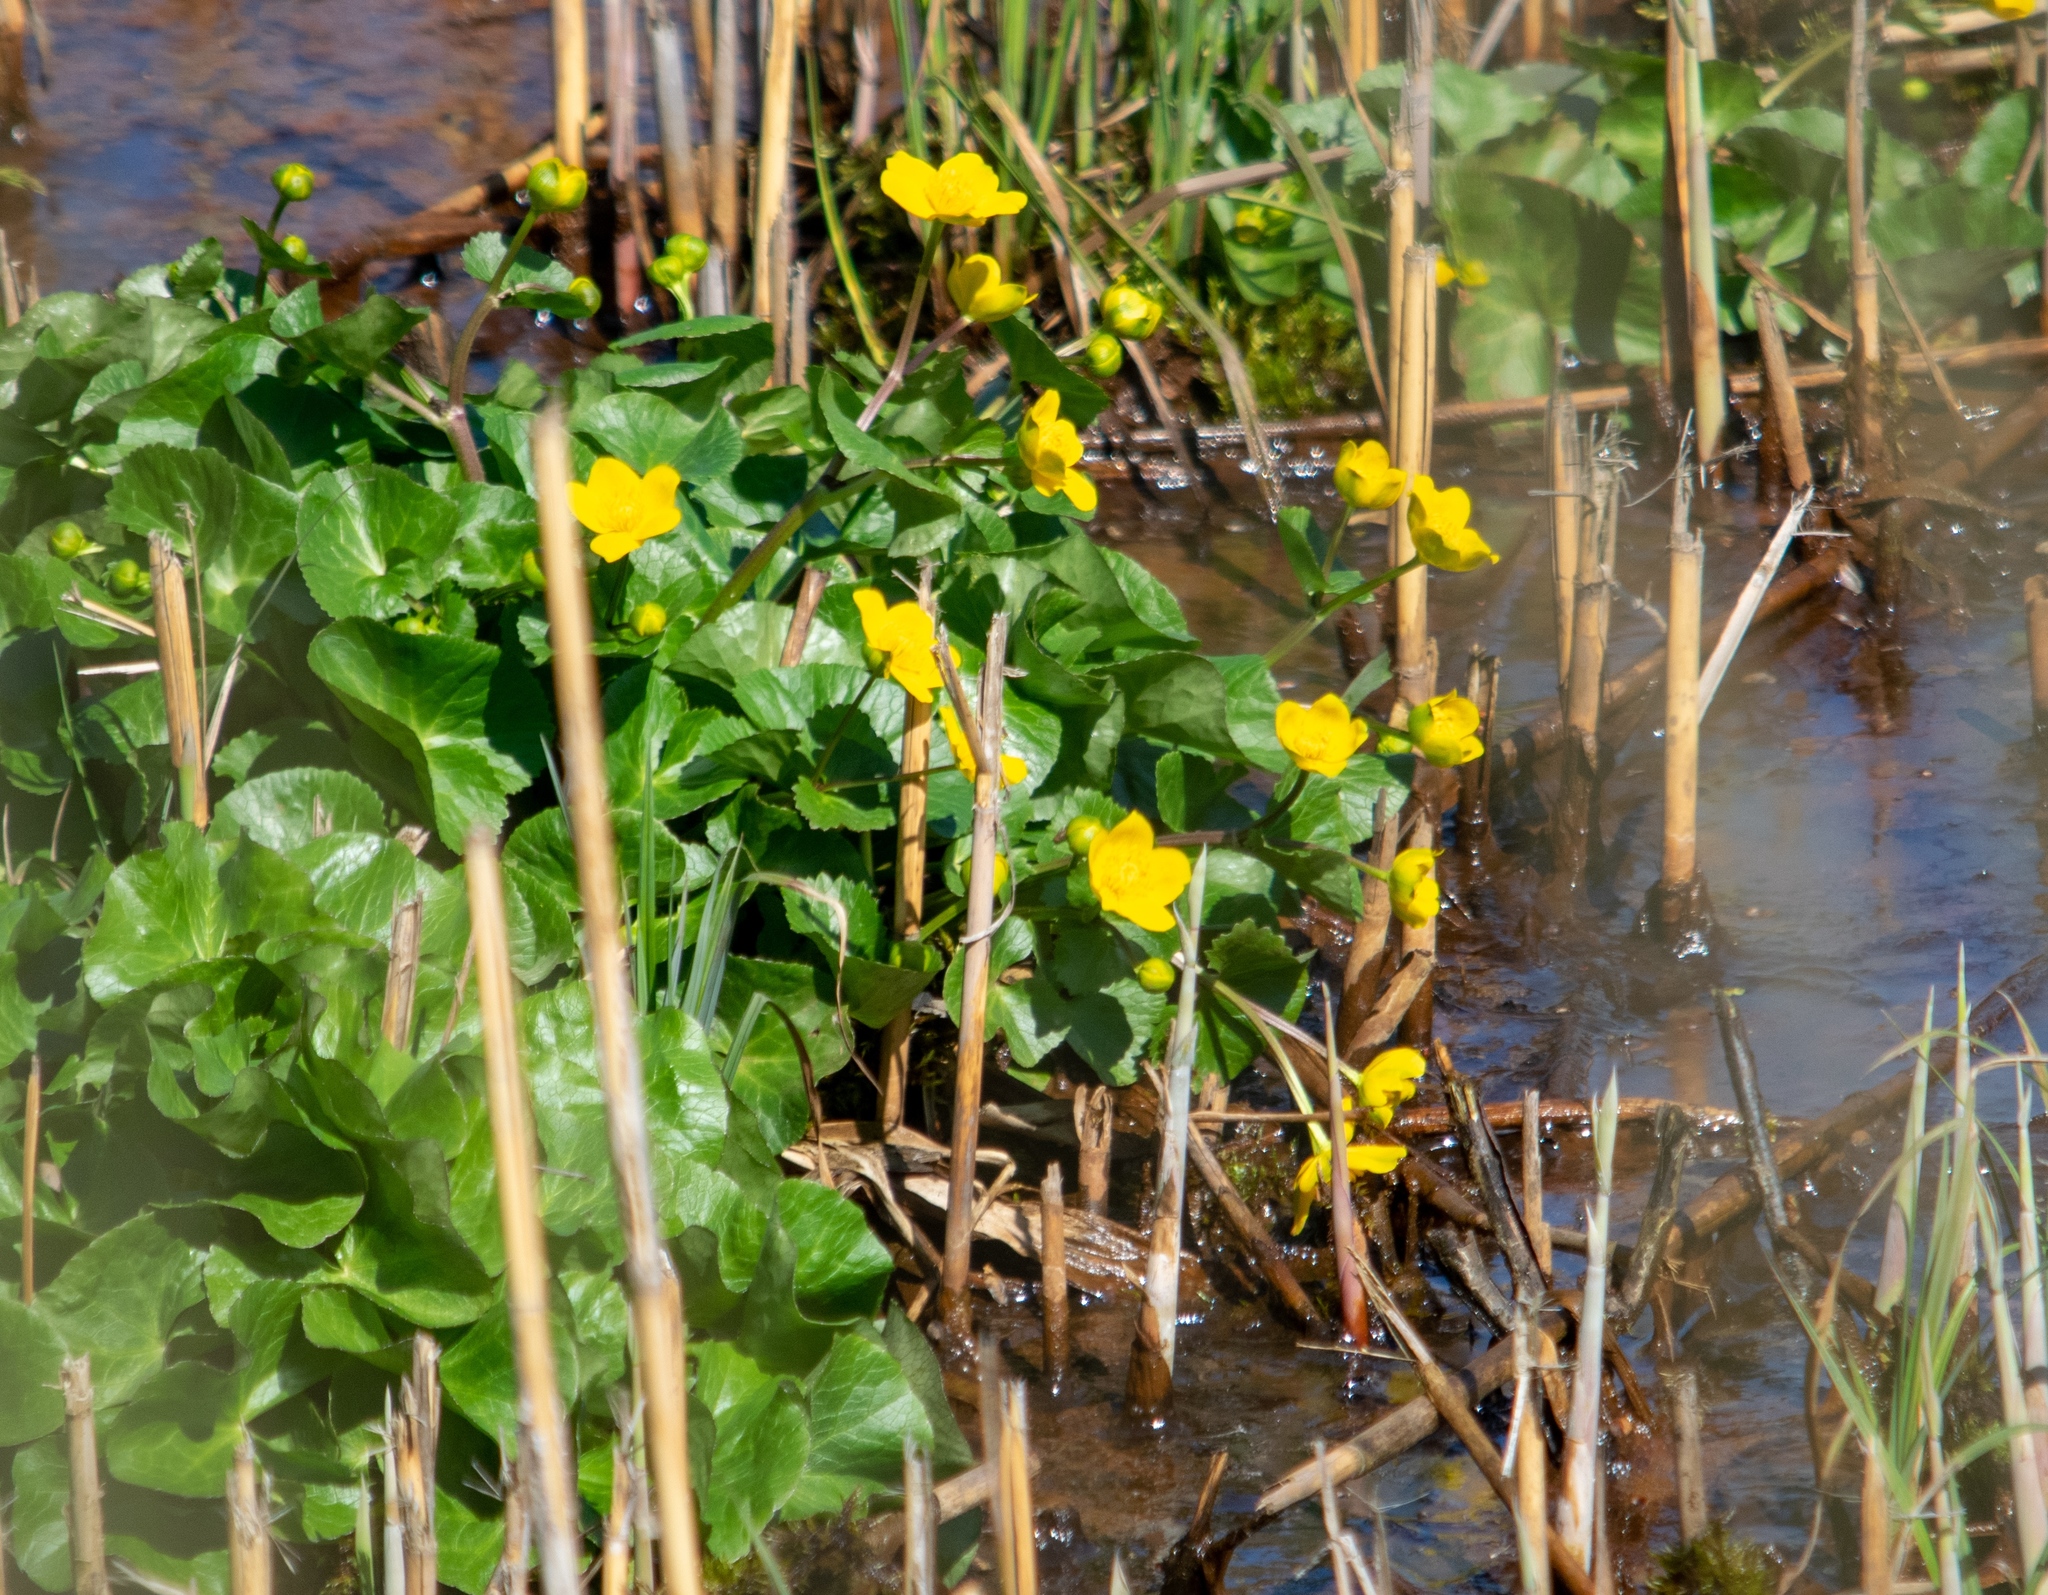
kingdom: Plantae
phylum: Tracheophyta
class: Magnoliopsida
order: Ranunculales
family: Ranunculaceae
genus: Caltha
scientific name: Caltha palustris
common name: Marsh marigold
